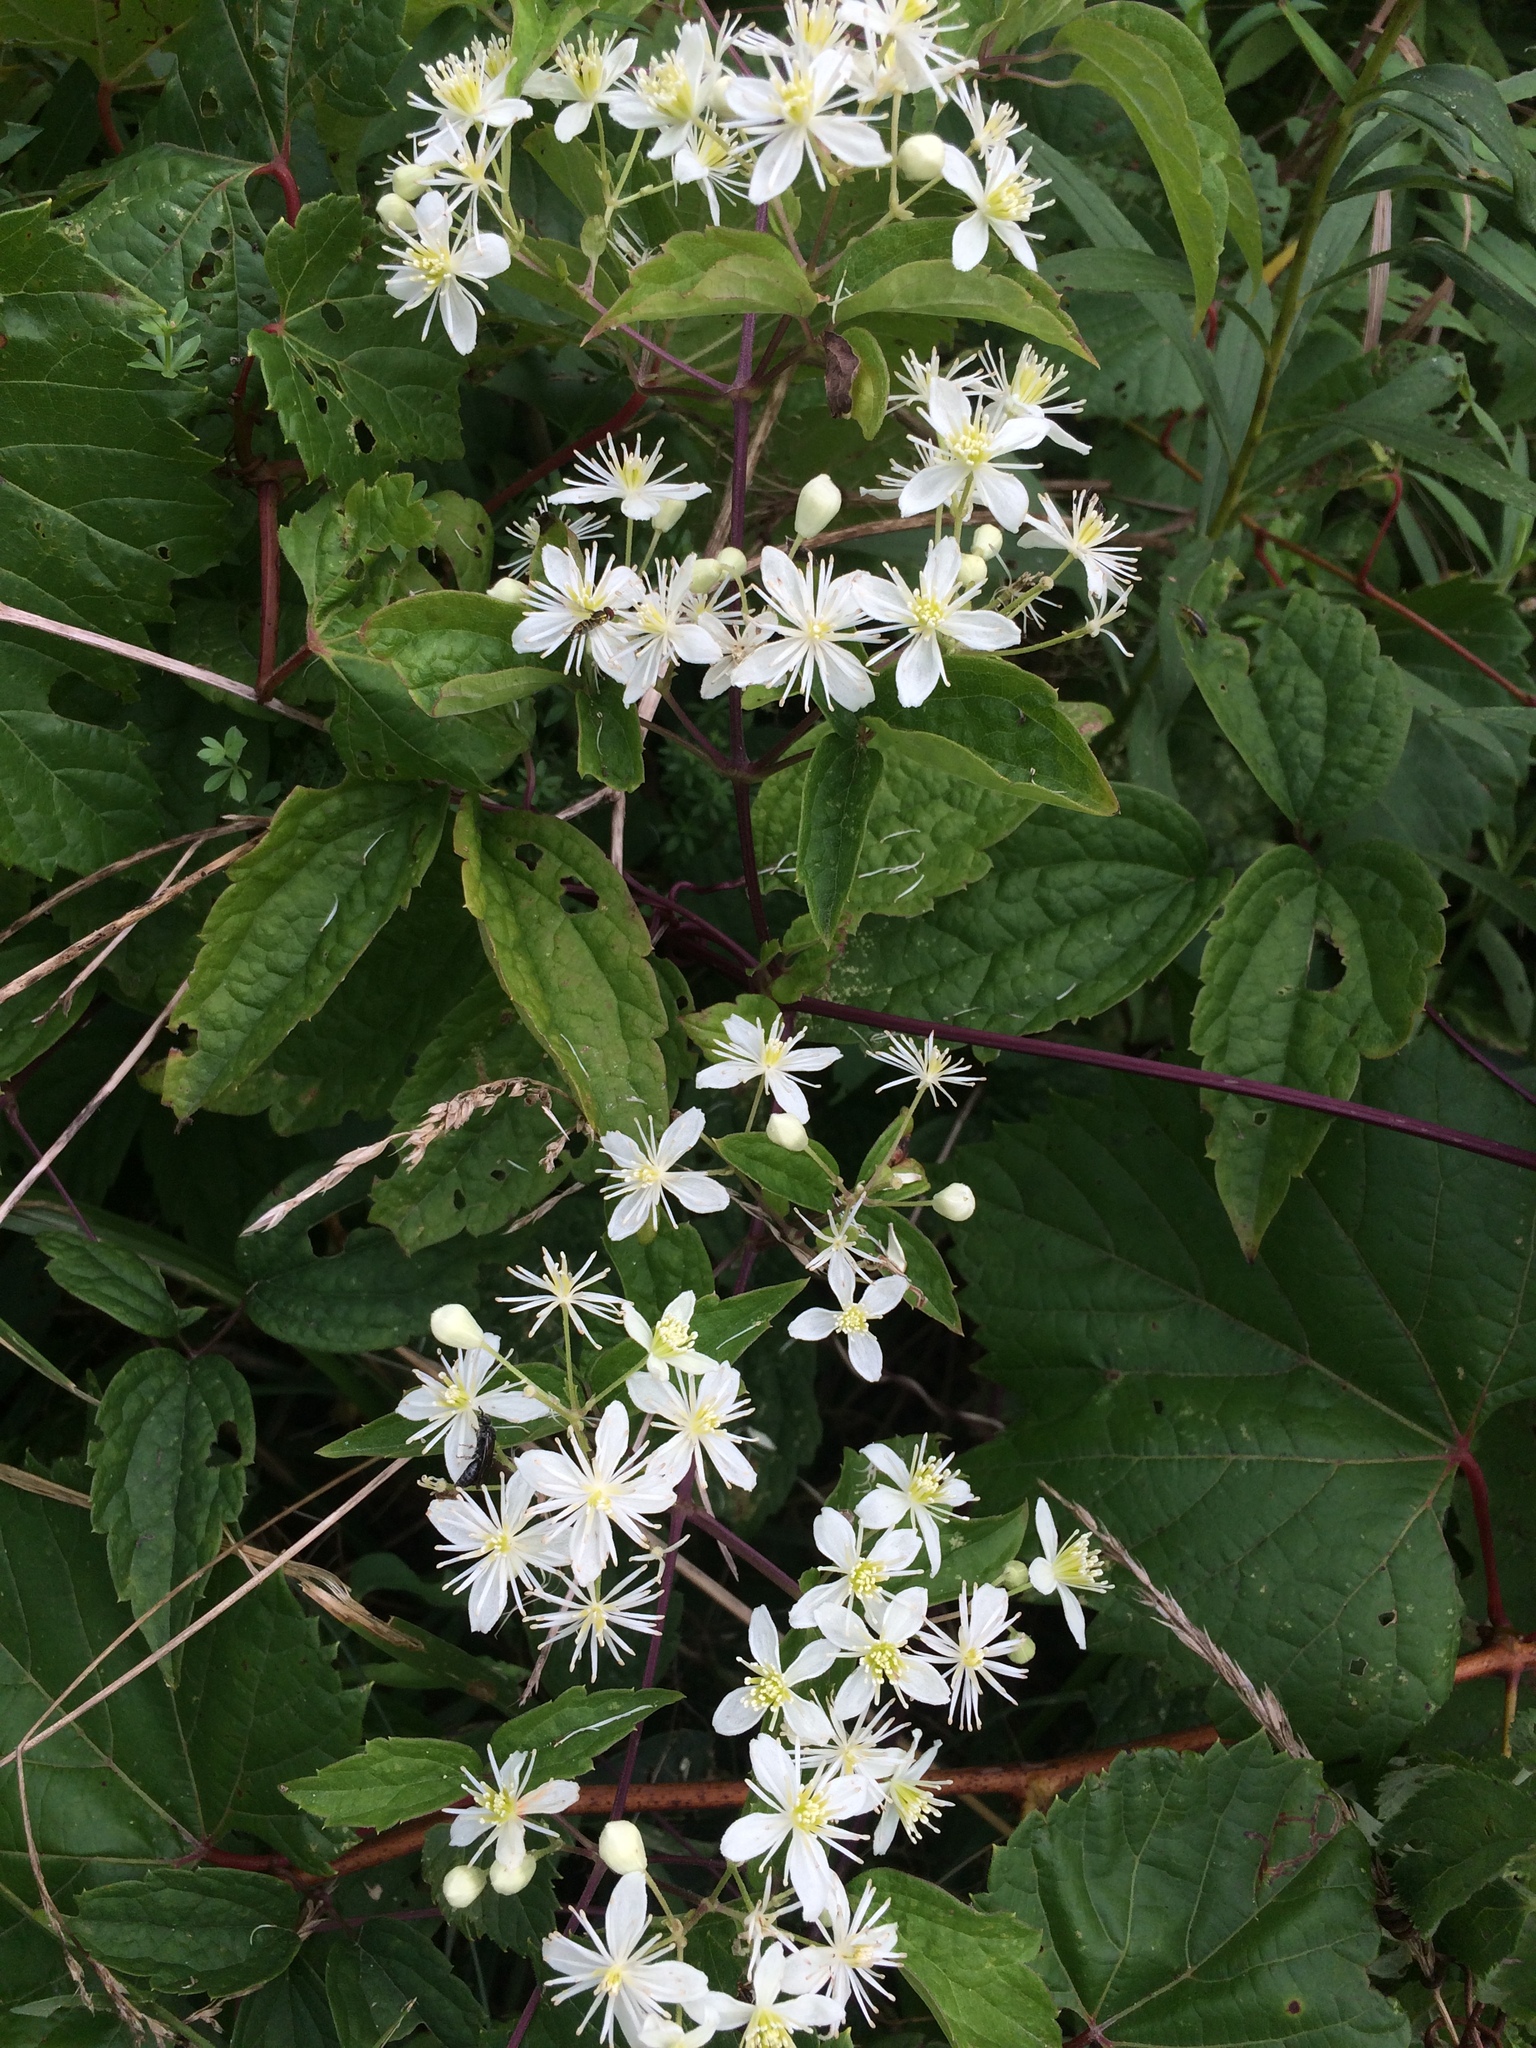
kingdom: Plantae
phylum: Tracheophyta
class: Magnoliopsida
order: Ranunculales
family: Ranunculaceae
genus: Clematis
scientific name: Clematis virginiana
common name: Virgin's-bower
